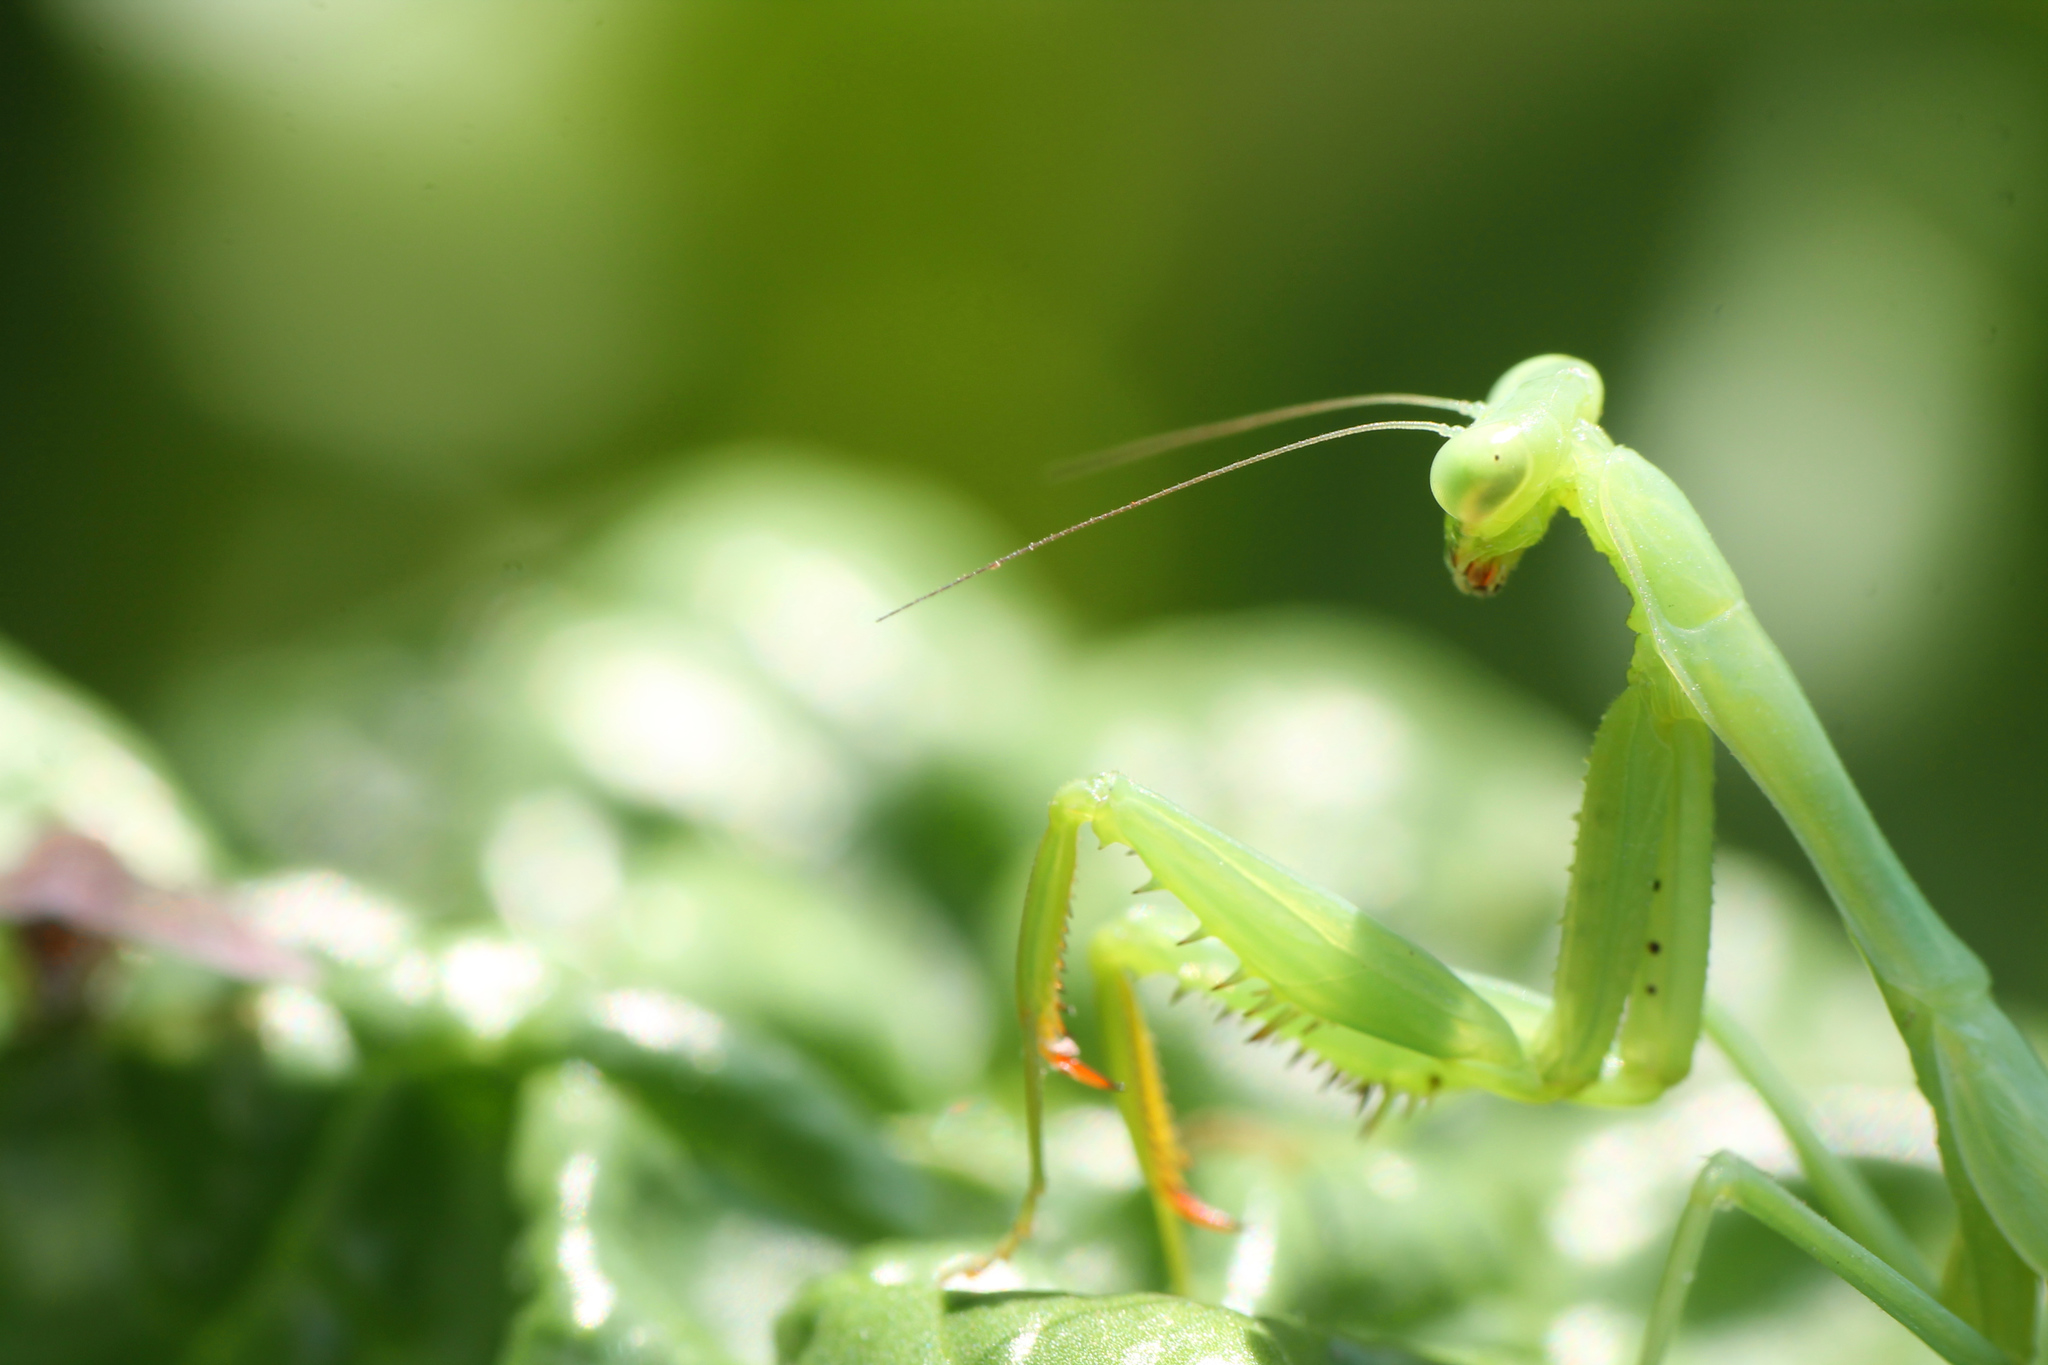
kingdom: Animalia
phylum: Arthropoda
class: Insecta
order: Mantodea
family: Miomantidae
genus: Miomantis
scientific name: Miomantis caffra
